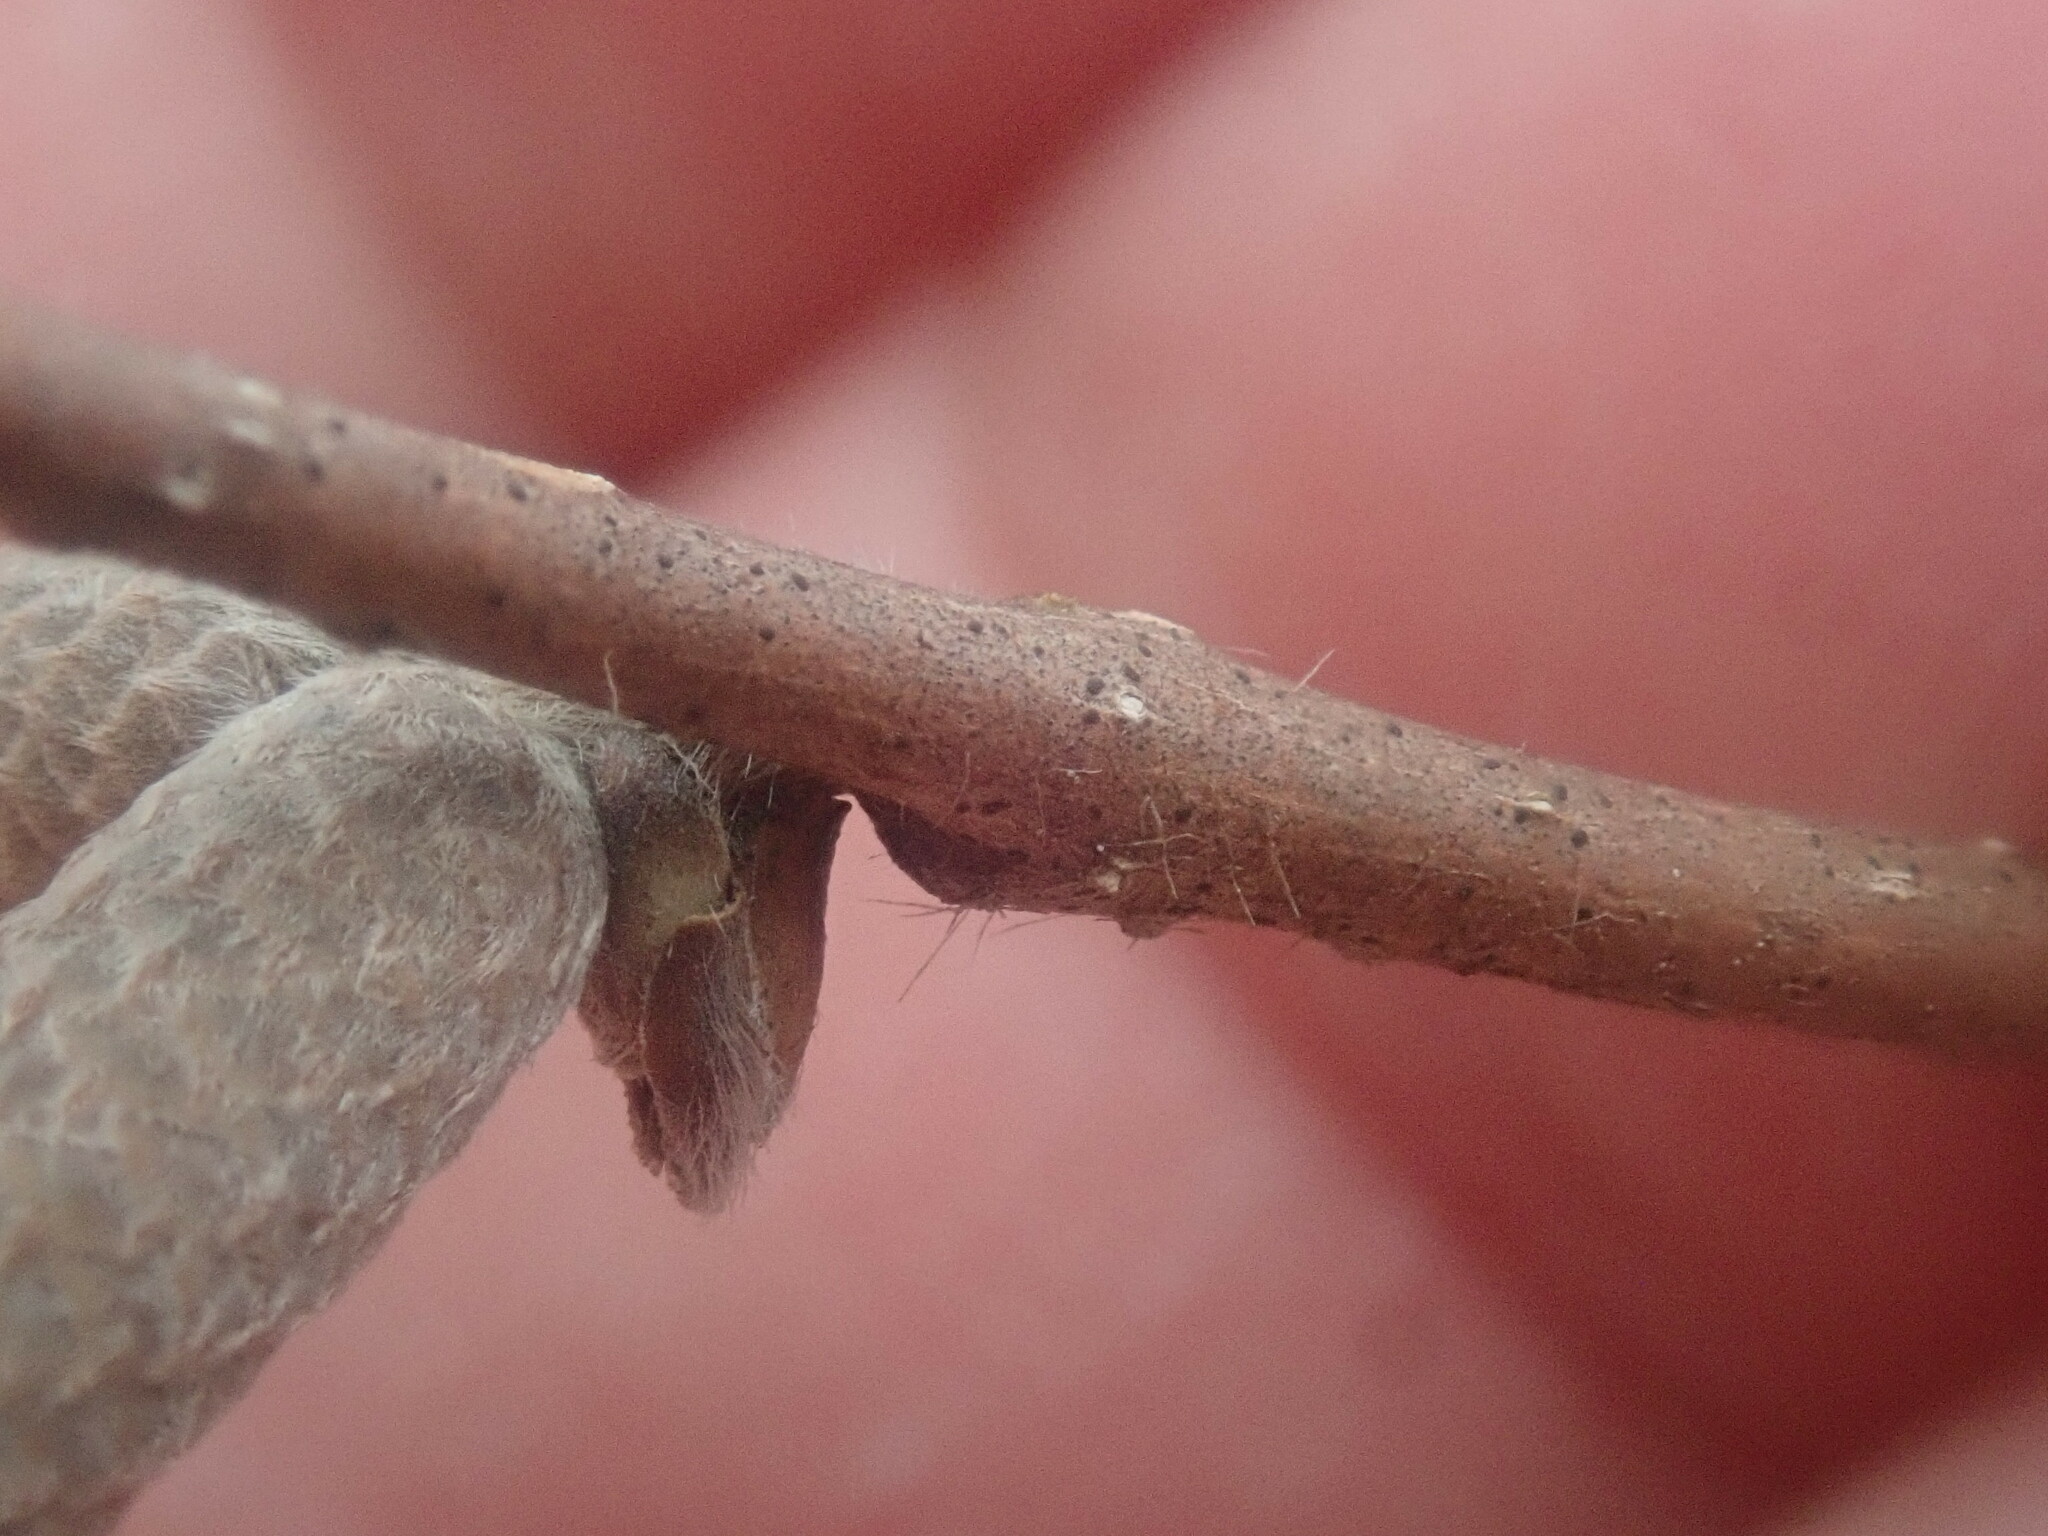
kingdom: Plantae
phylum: Tracheophyta
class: Magnoliopsida
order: Fagales
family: Betulaceae
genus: Corylus
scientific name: Corylus cornuta
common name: Beaked hazel
